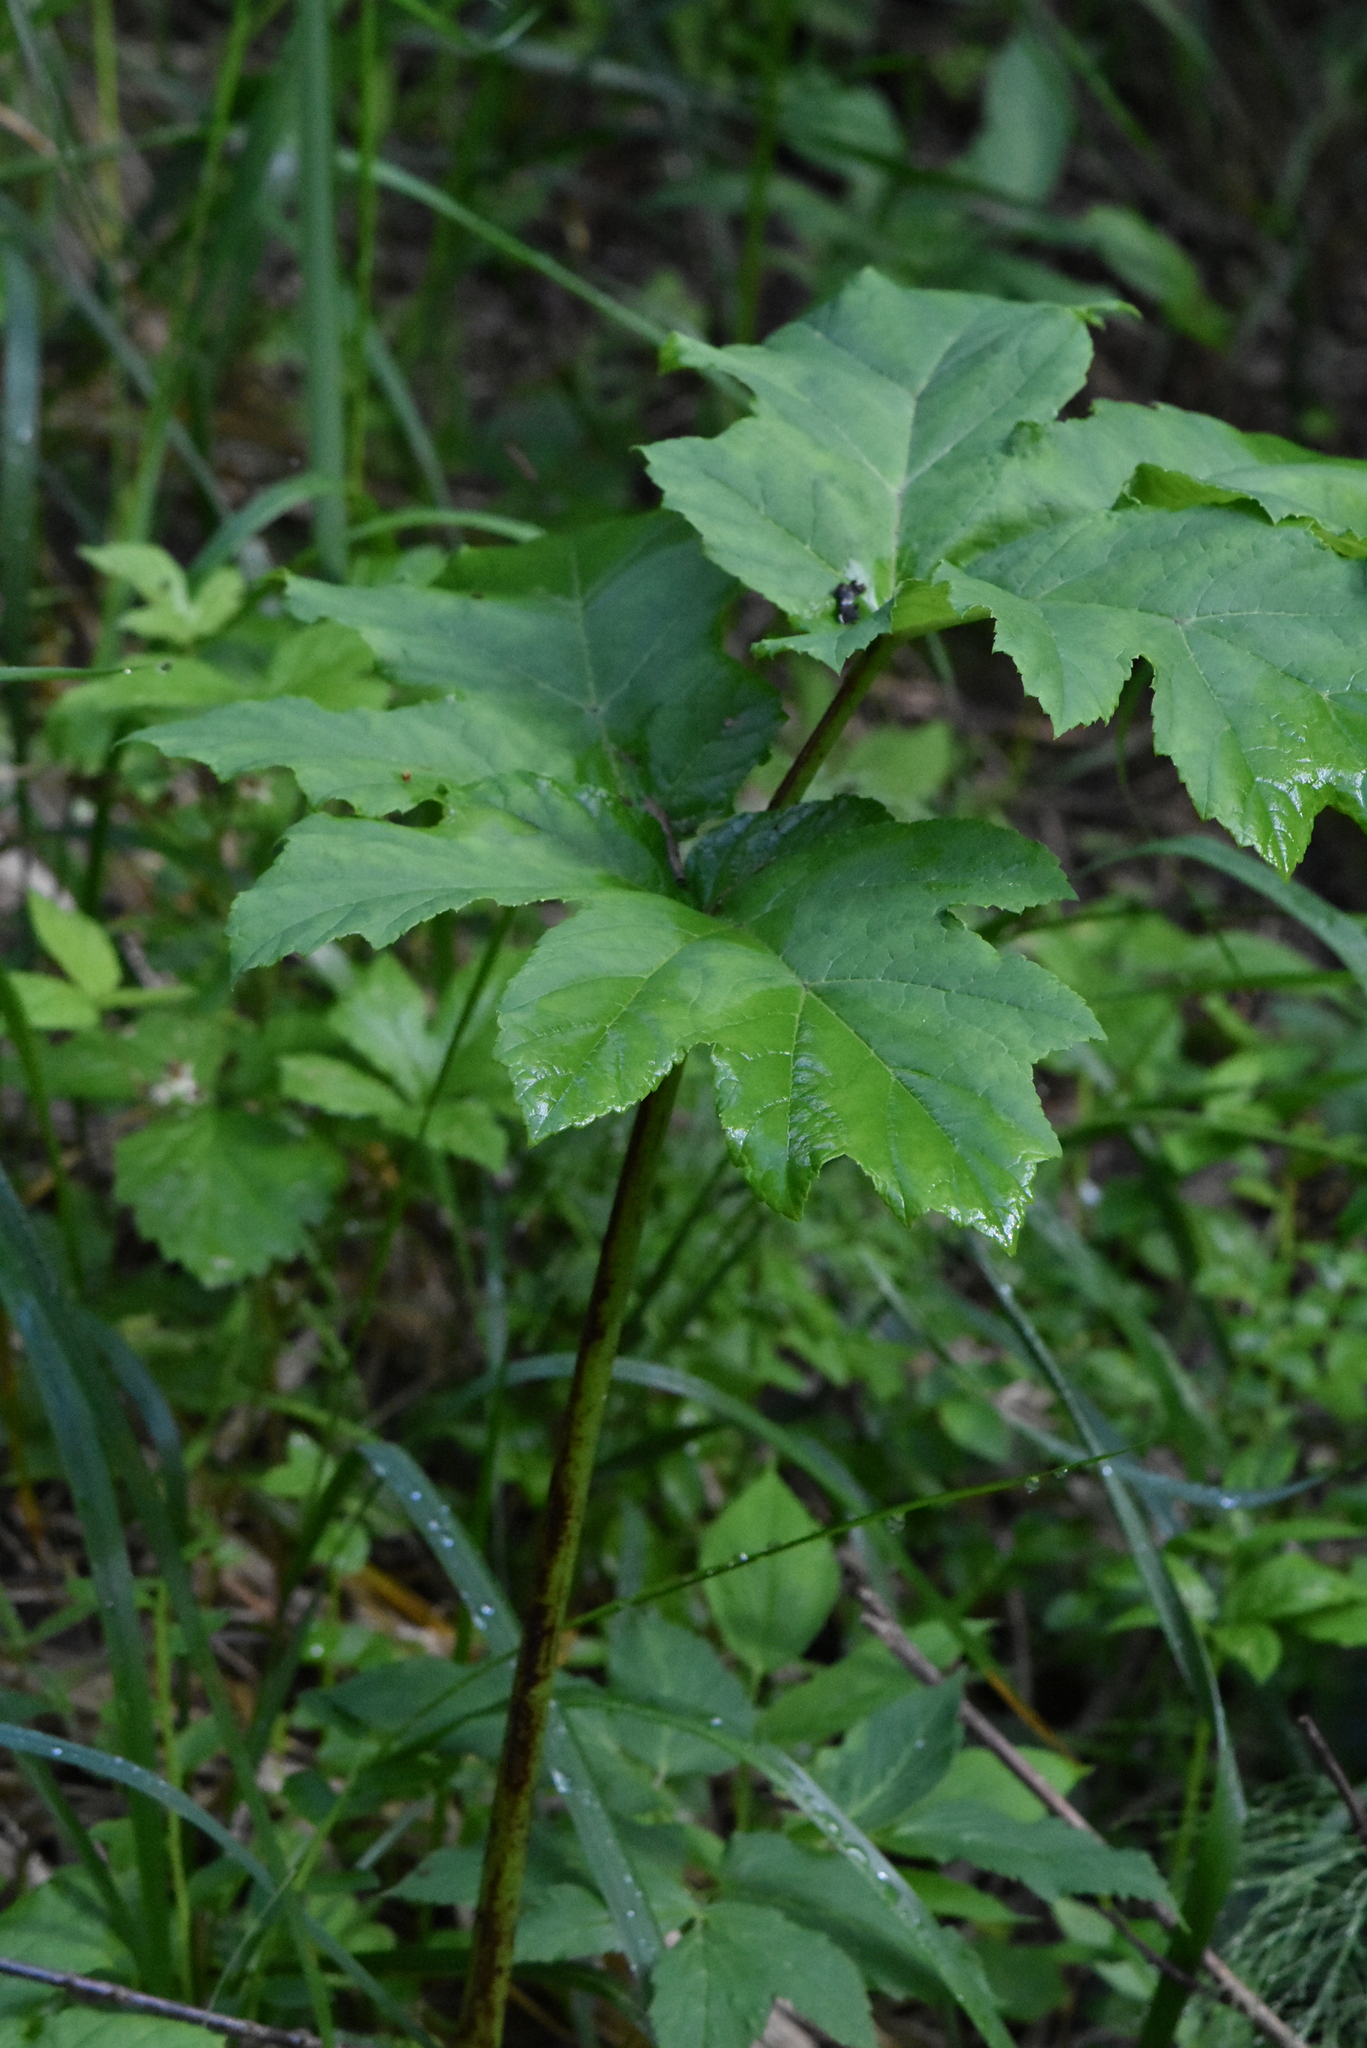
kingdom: Plantae
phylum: Tracheophyta
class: Magnoliopsida
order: Apiales
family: Apiaceae
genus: Heracleum
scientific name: Heracleum sosnowskyi
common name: Sosnowsky's hogweed
